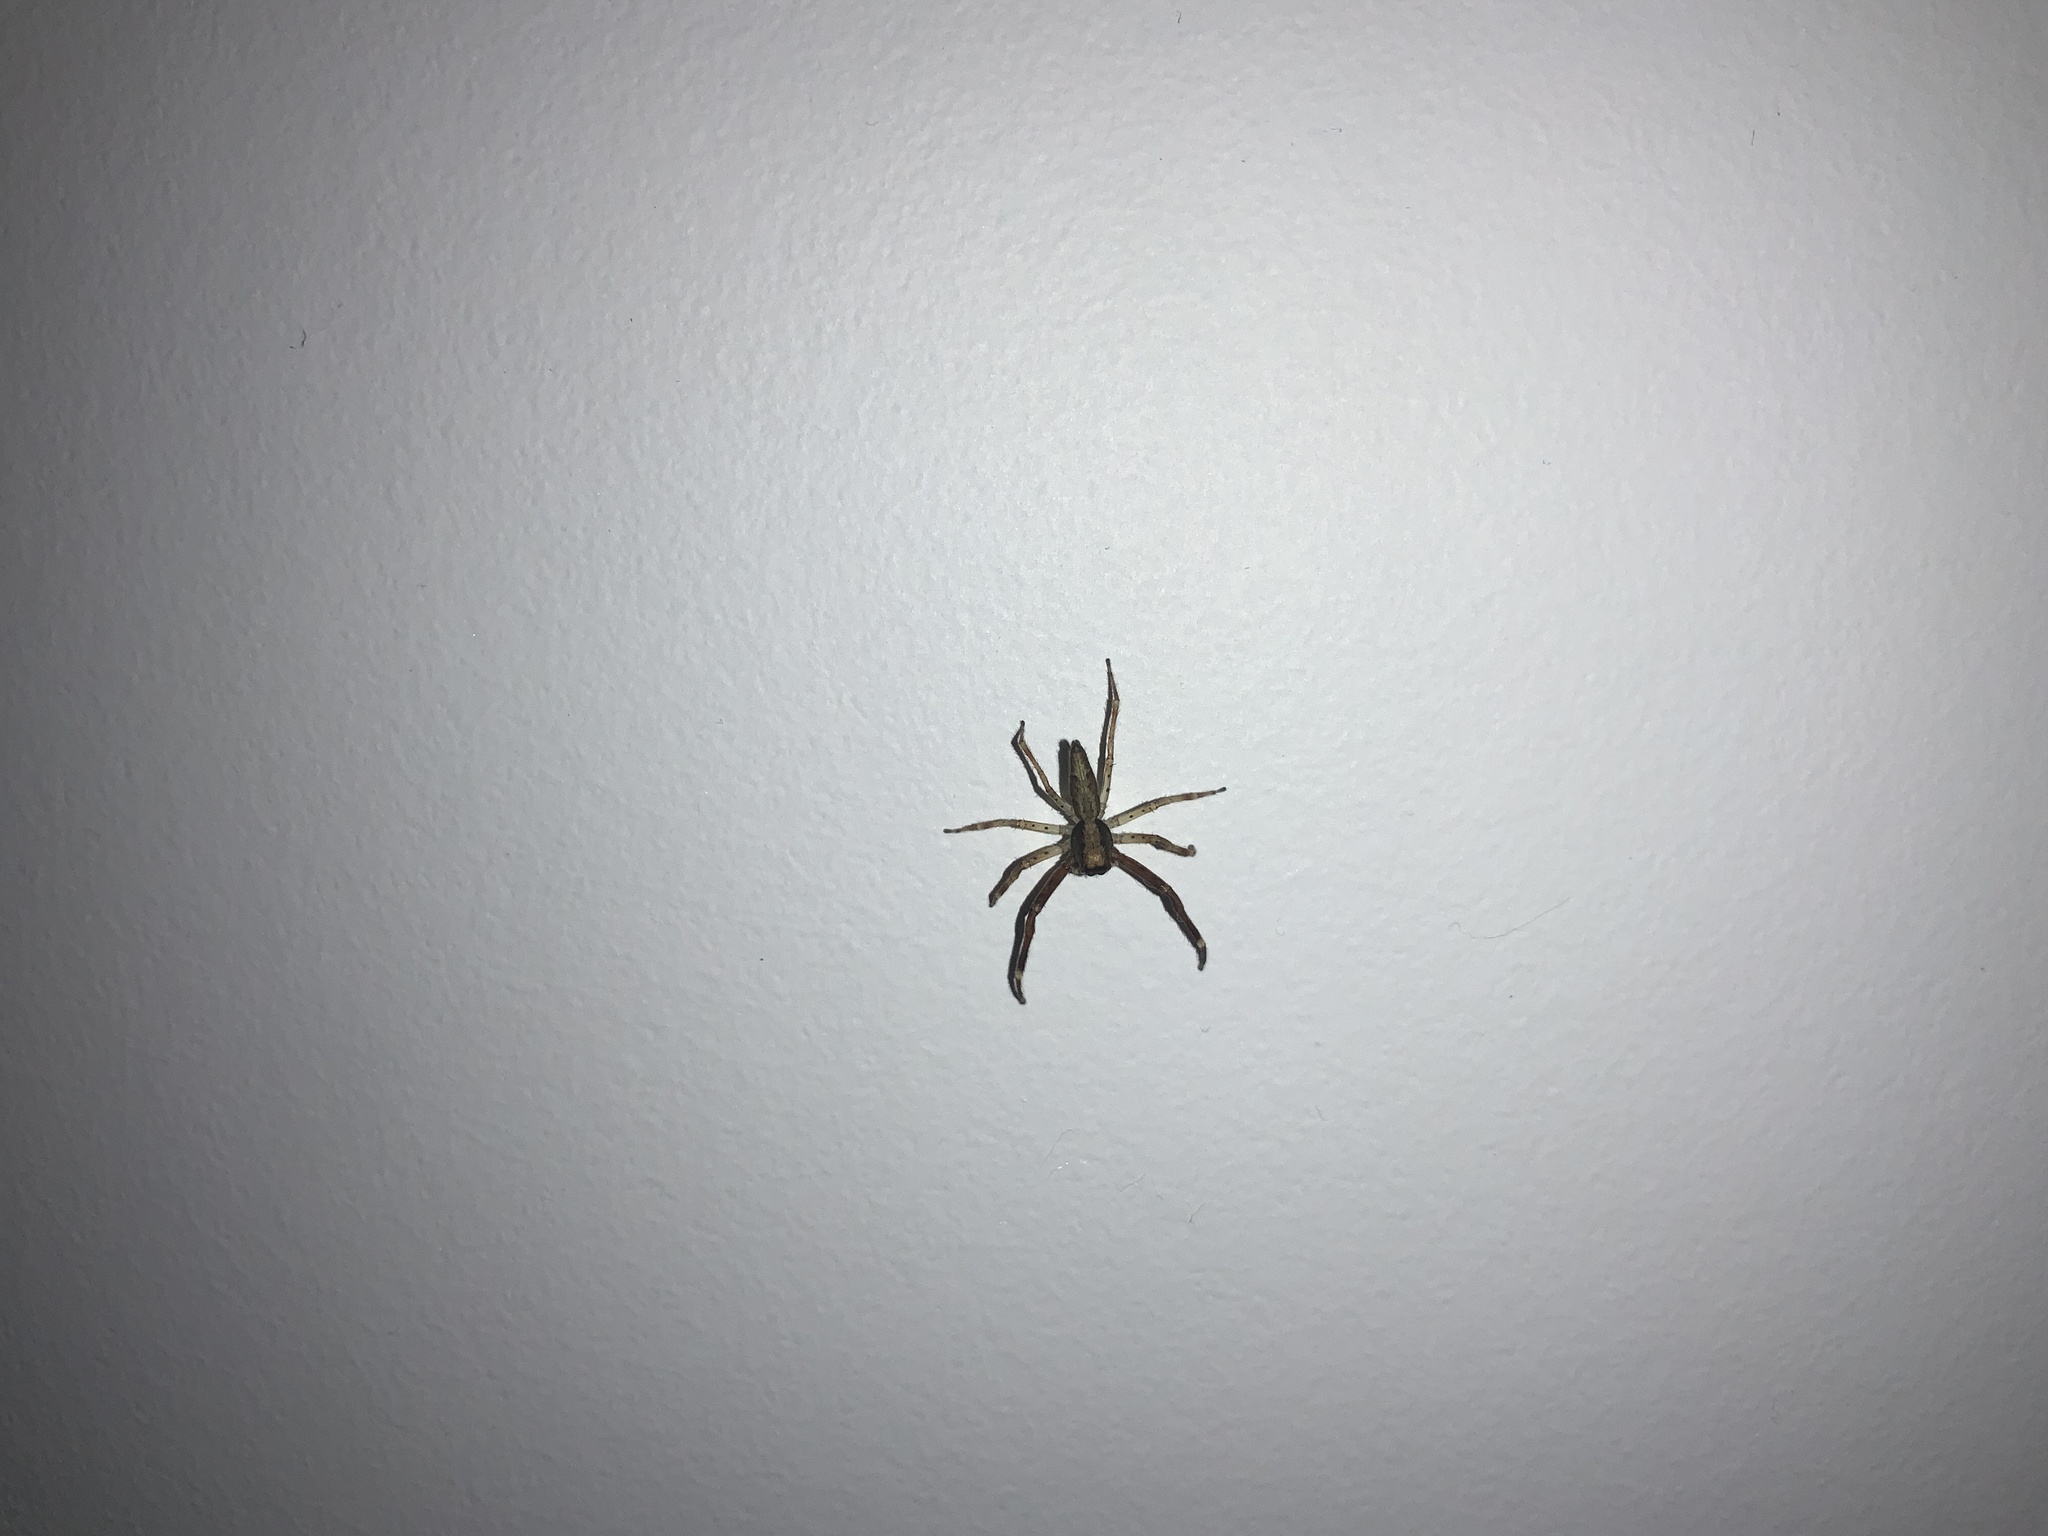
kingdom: Animalia
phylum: Arthropoda
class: Arachnida
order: Araneae
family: Salticidae
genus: Helpis
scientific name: Helpis minitabunda
